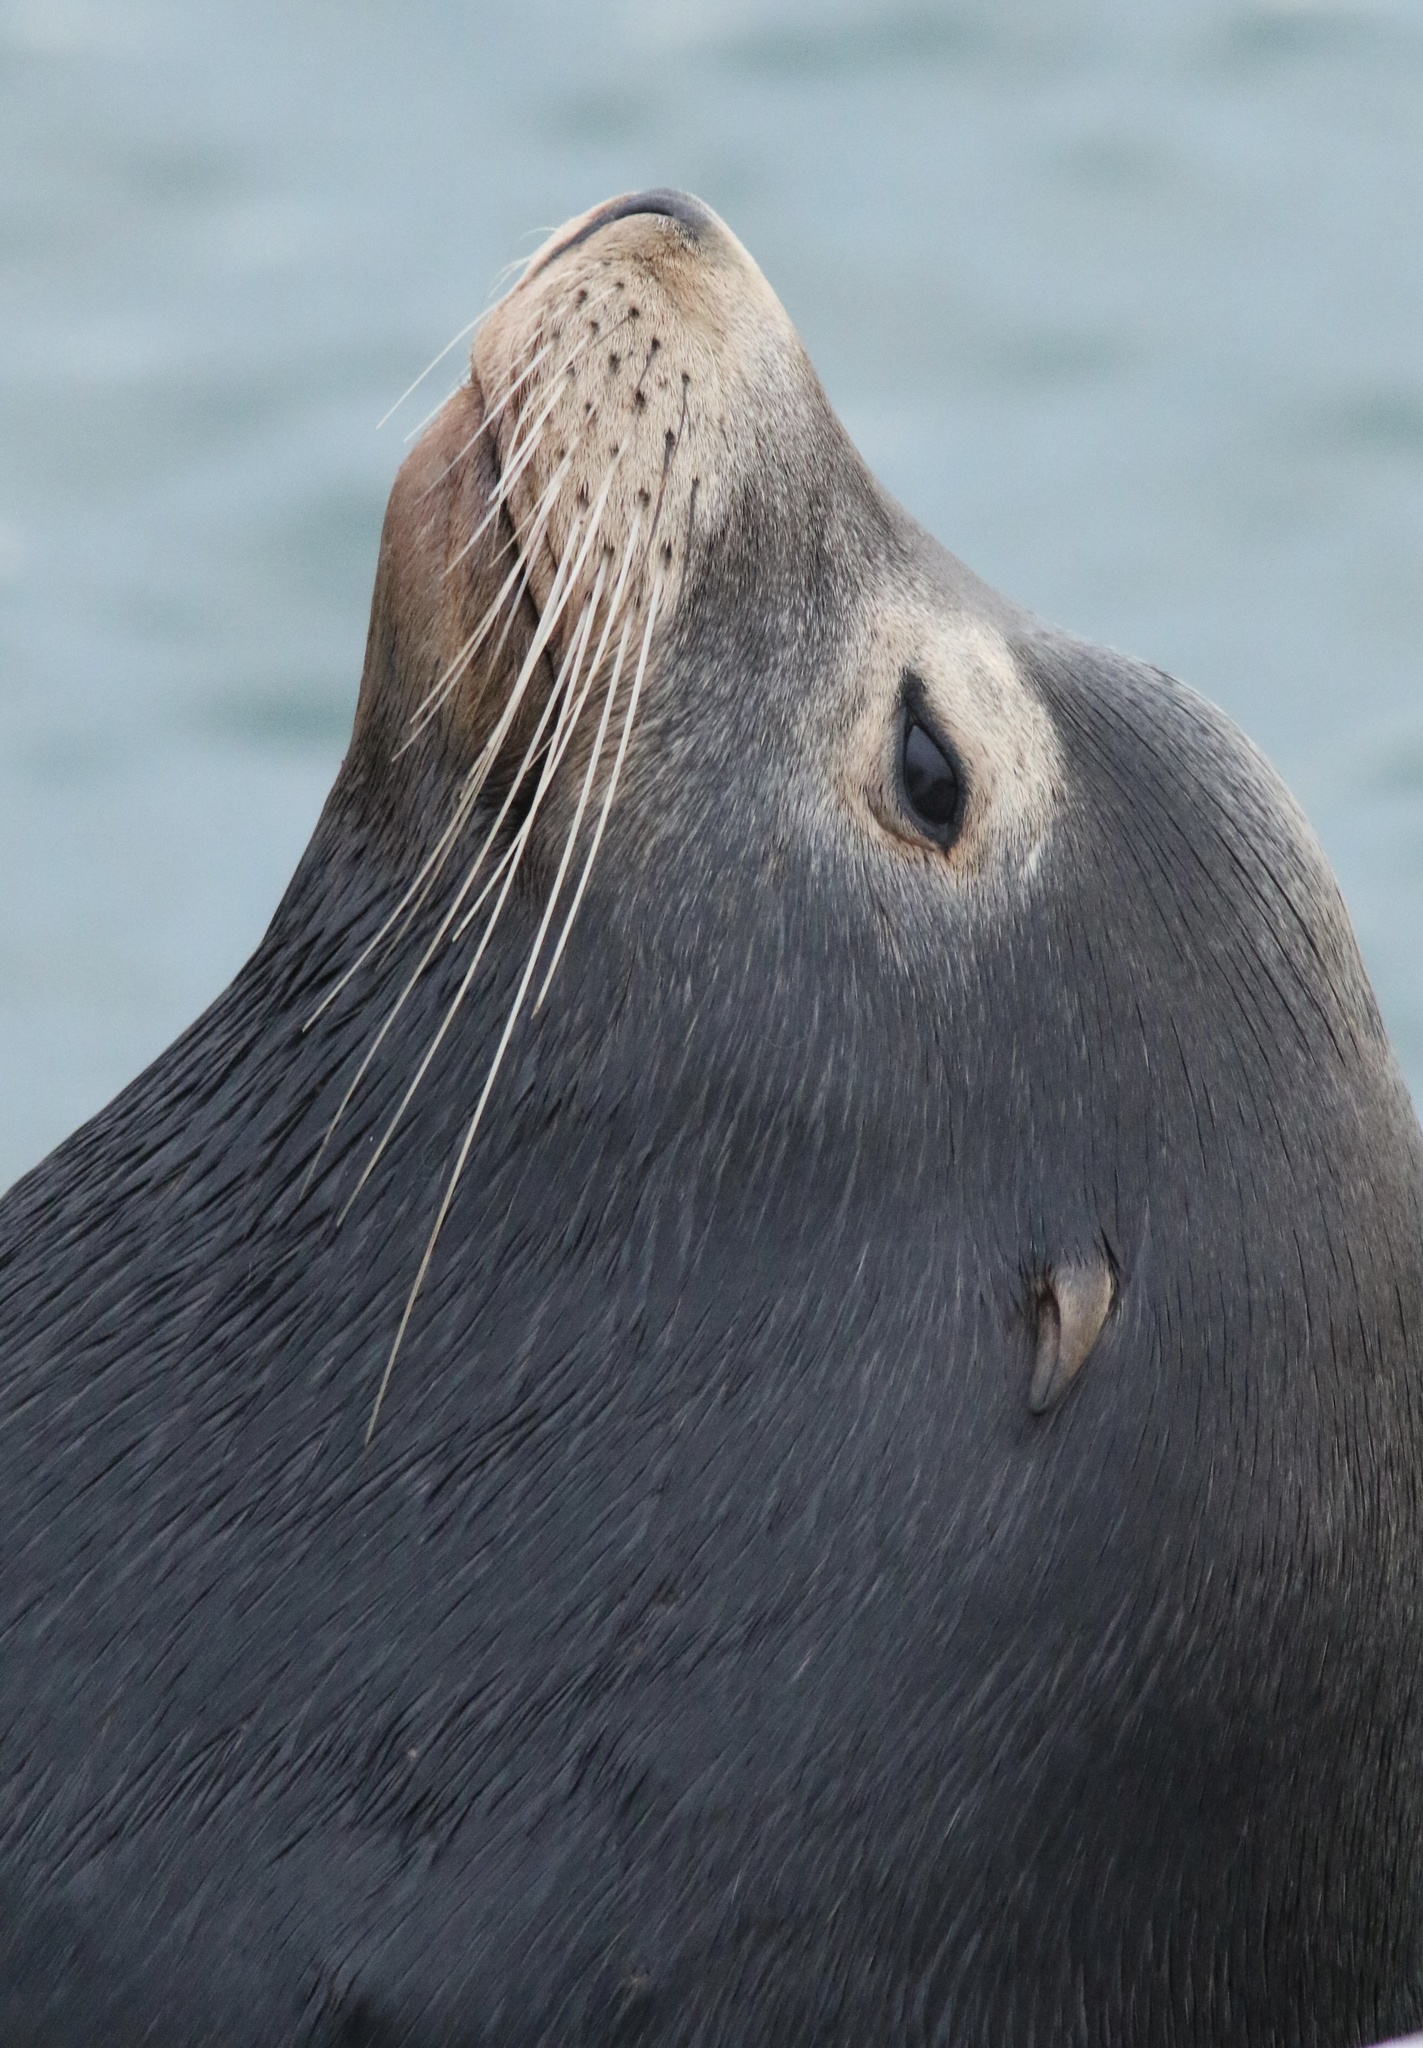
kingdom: Animalia
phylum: Chordata
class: Mammalia
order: Carnivora
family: Otariidae
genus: Zalophus
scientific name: Zalophus californianus
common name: California sea lion
